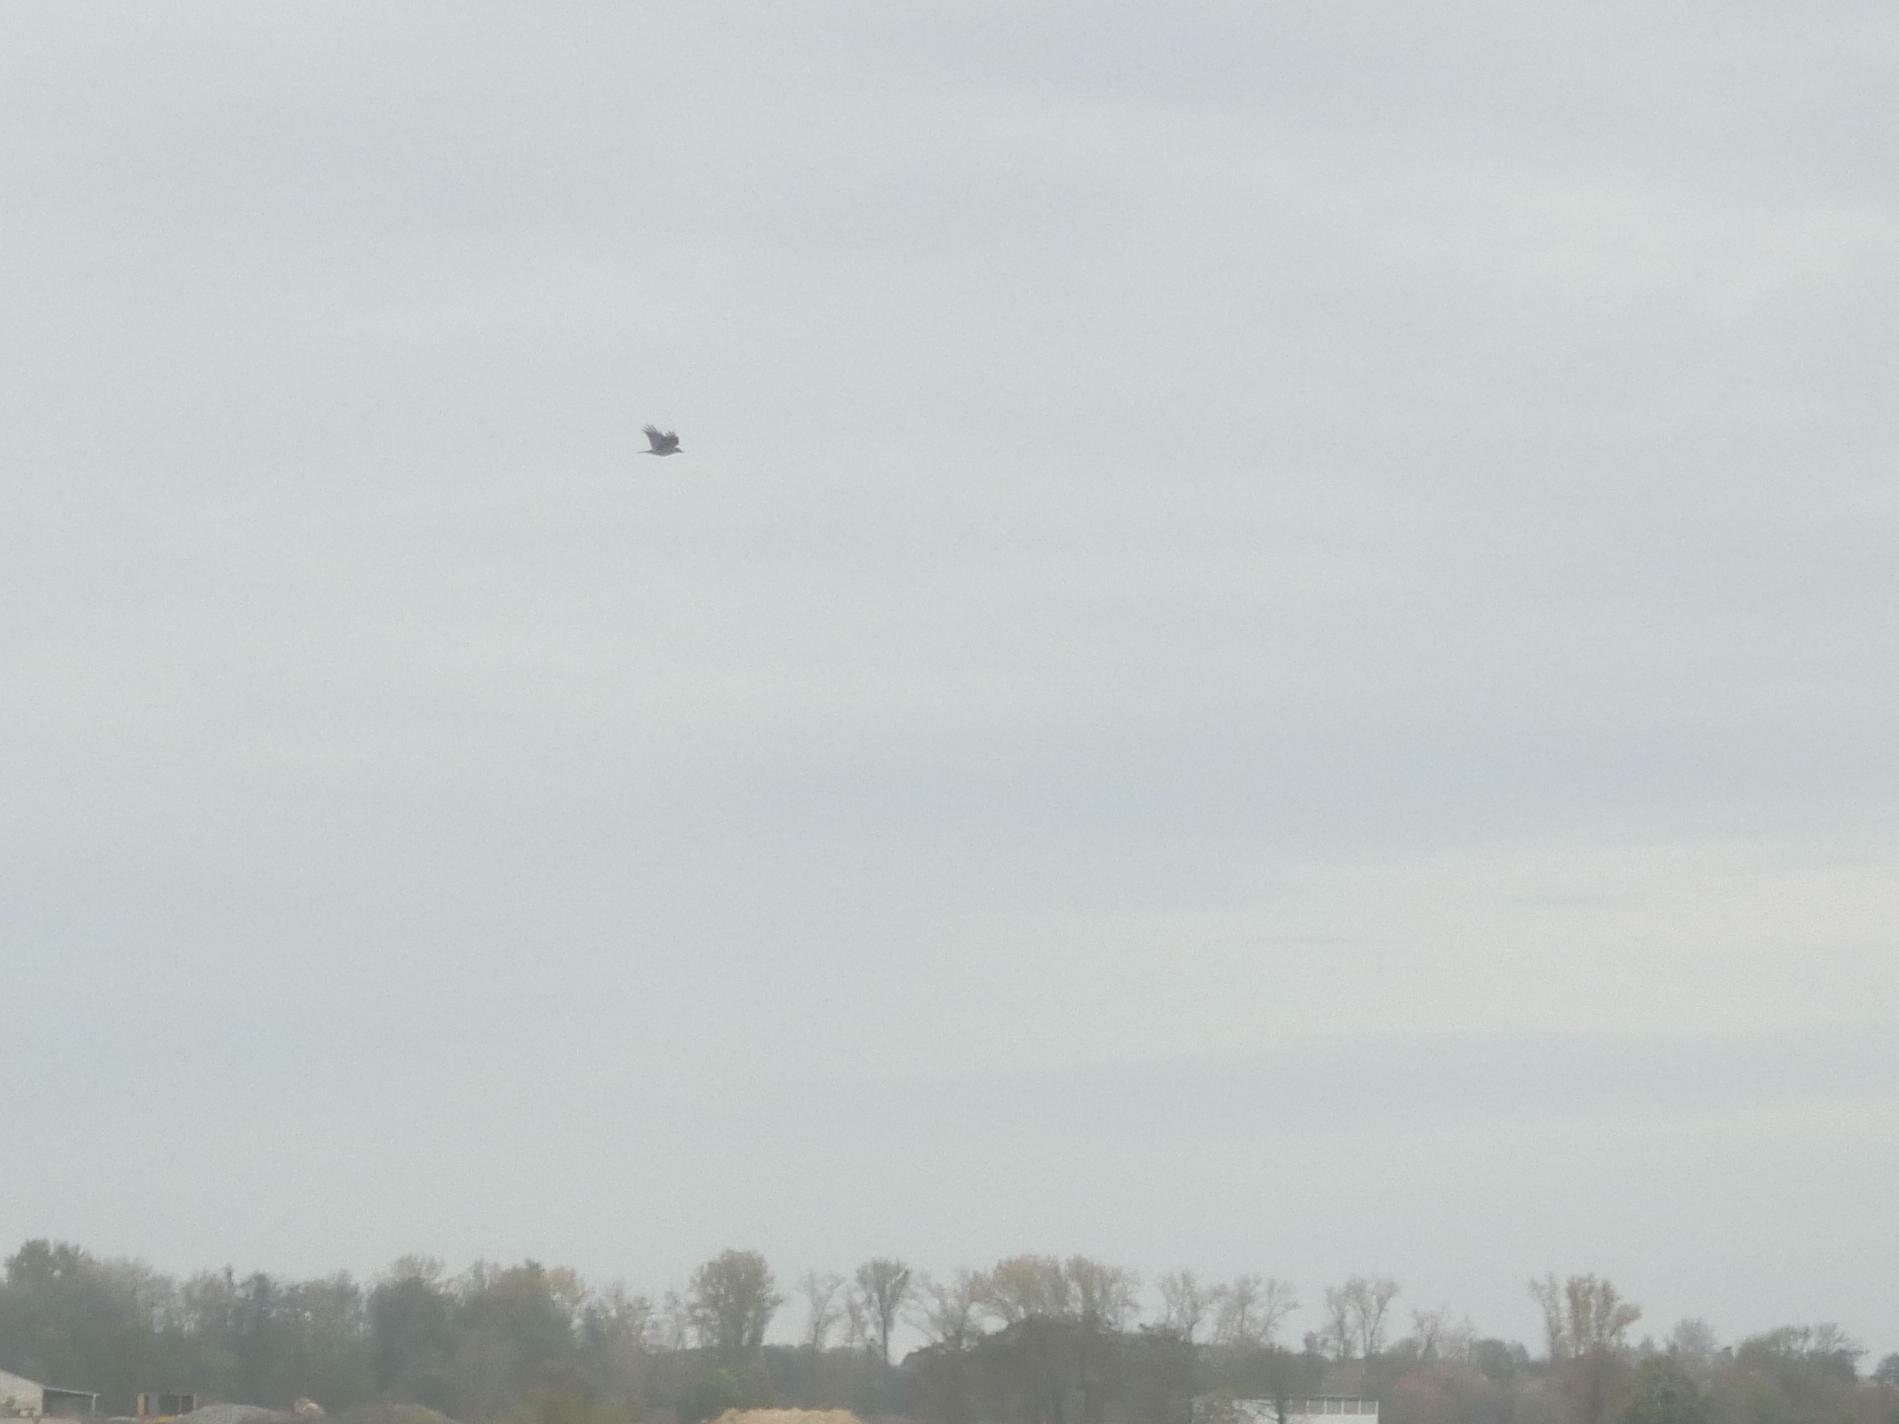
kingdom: Animalia
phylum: Chordata
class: Aves
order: Passeriformes
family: Corvidae
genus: Corvus
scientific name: Corvus cornix
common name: Hooded crow
